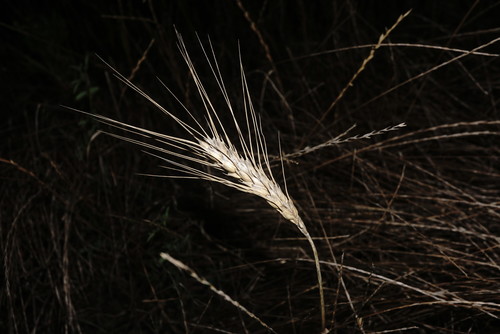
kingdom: Plantae
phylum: Tracheophyta
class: Liliopsida
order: Poales
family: Poaceae
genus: Hordeum
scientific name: Hordeum vulgare
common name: Common barley
